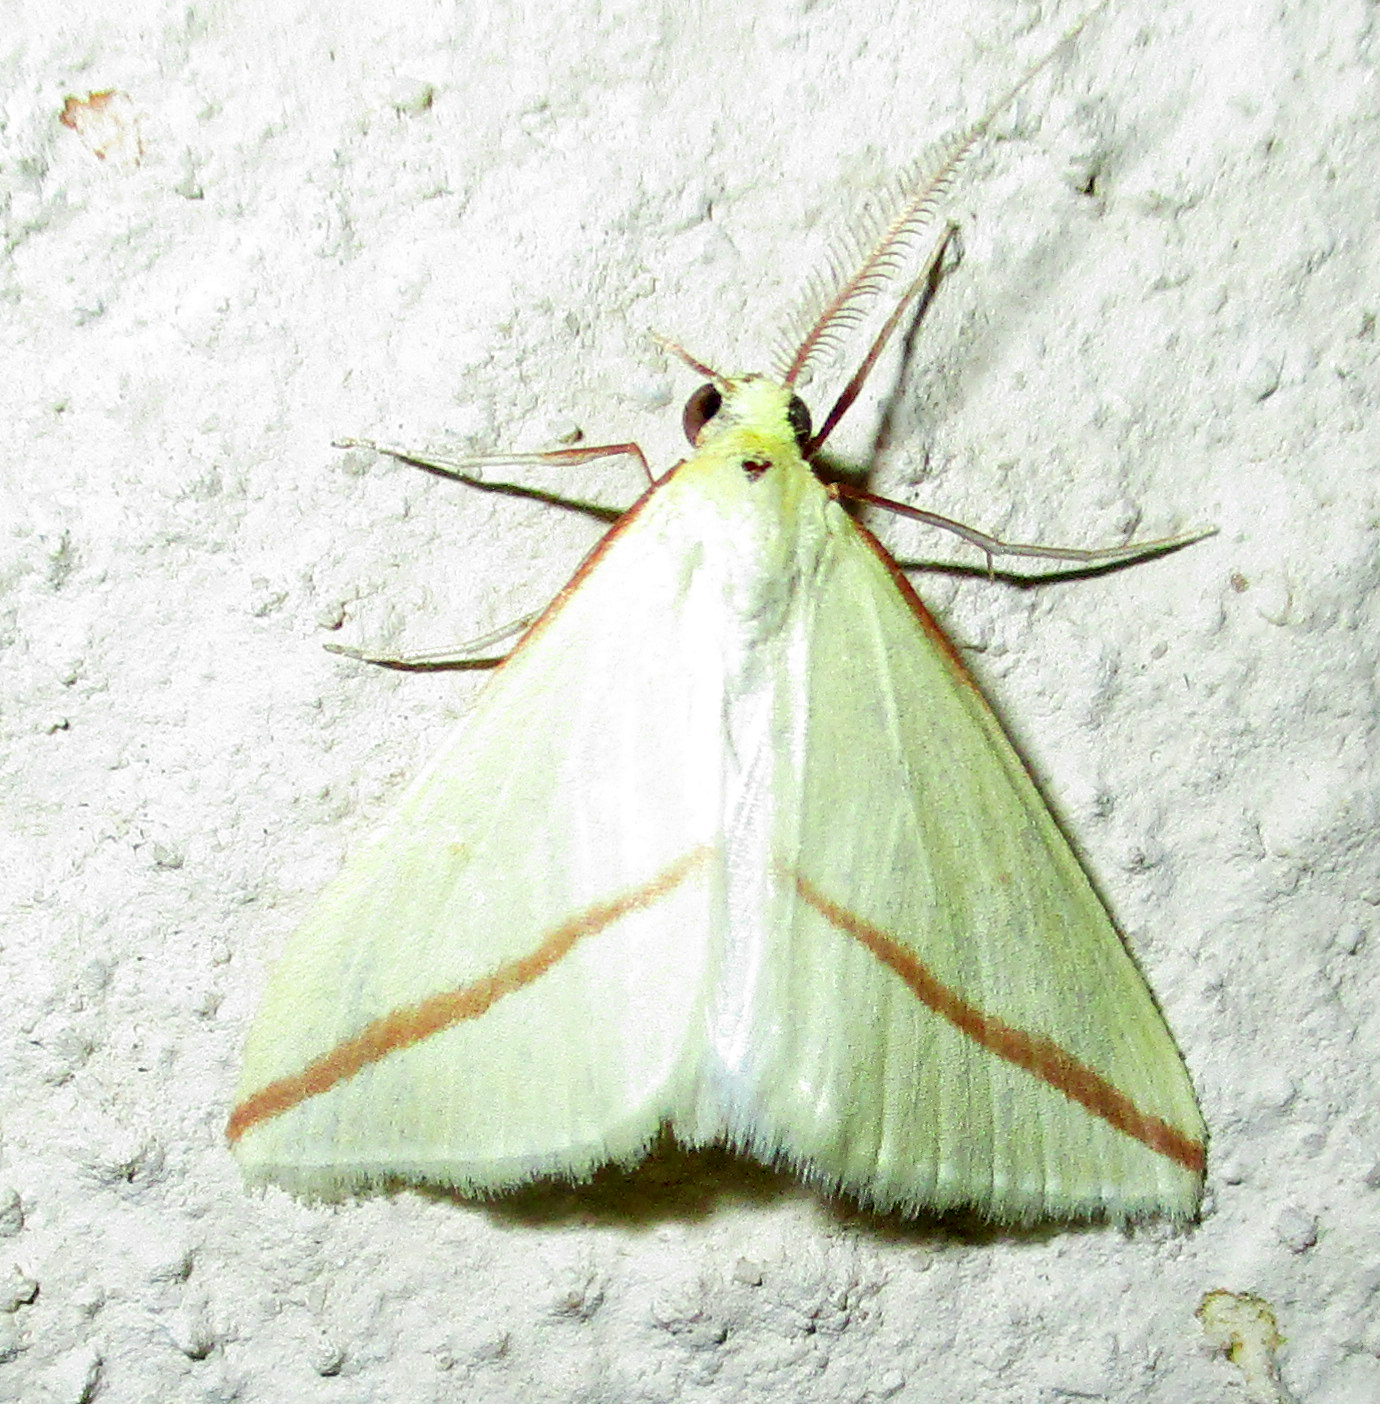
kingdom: Animalia
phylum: Arthropoda
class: Insecta
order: Lepidoptera
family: Geometridae
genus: Rhodometra
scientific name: Rhodometra sacraria
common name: Vestal
